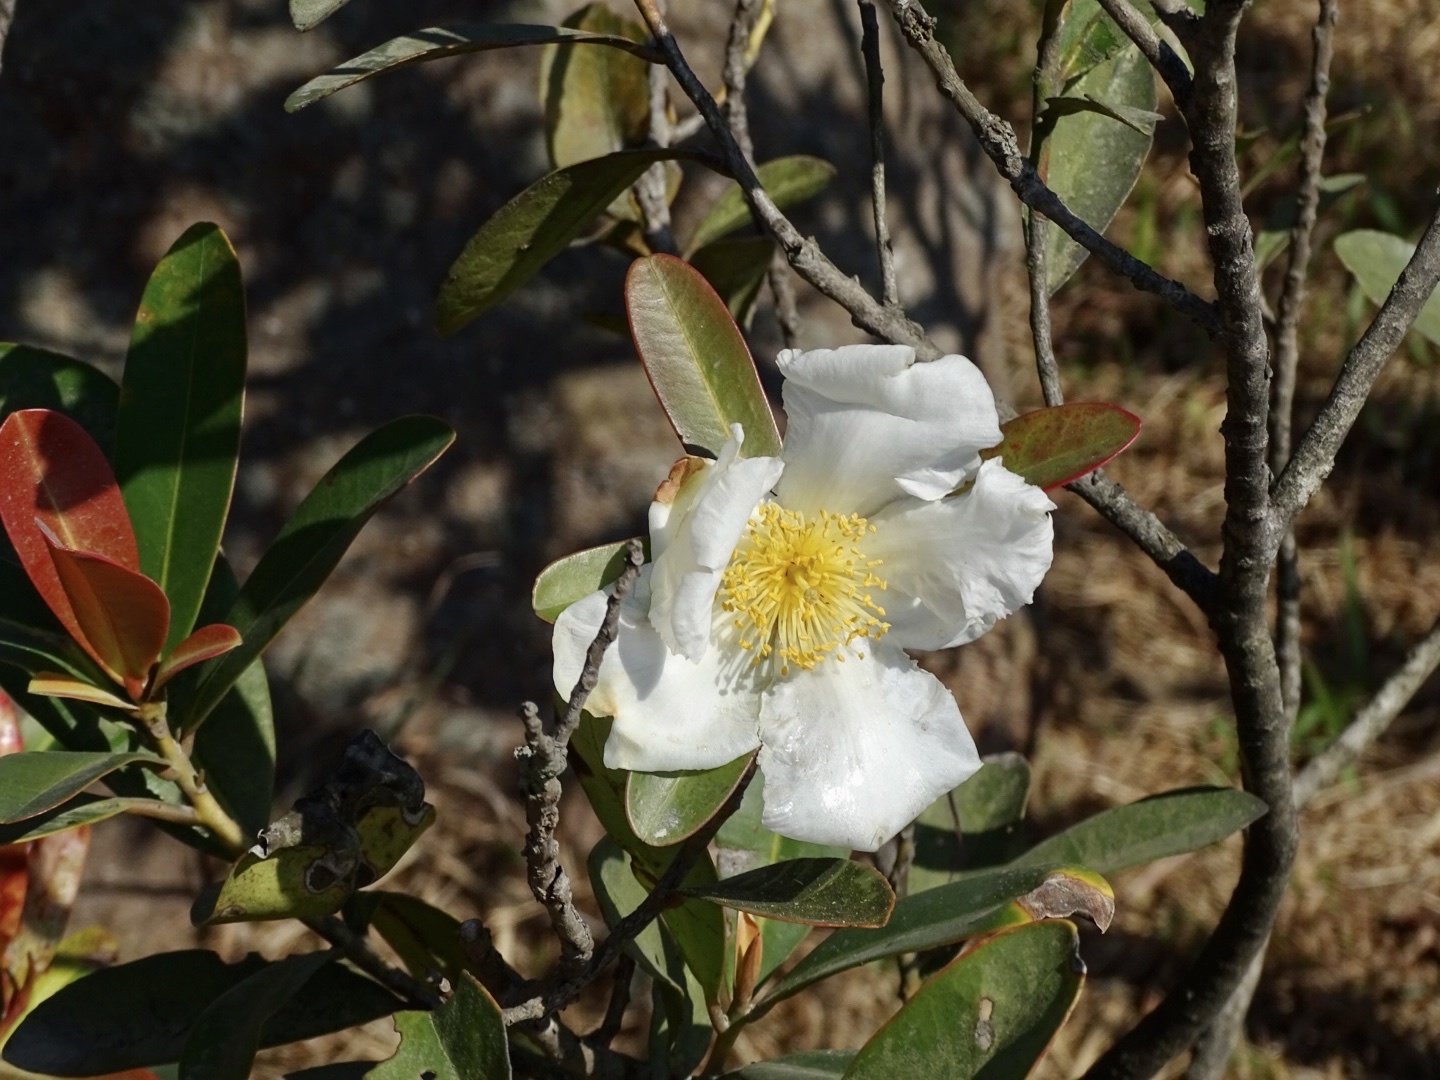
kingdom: Plantae
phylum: Tracheophyta
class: Magnoliopsida
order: Ericales
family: Theaceae
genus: Polyspora
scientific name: Polyspora axillaris
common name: Fried egg tree
